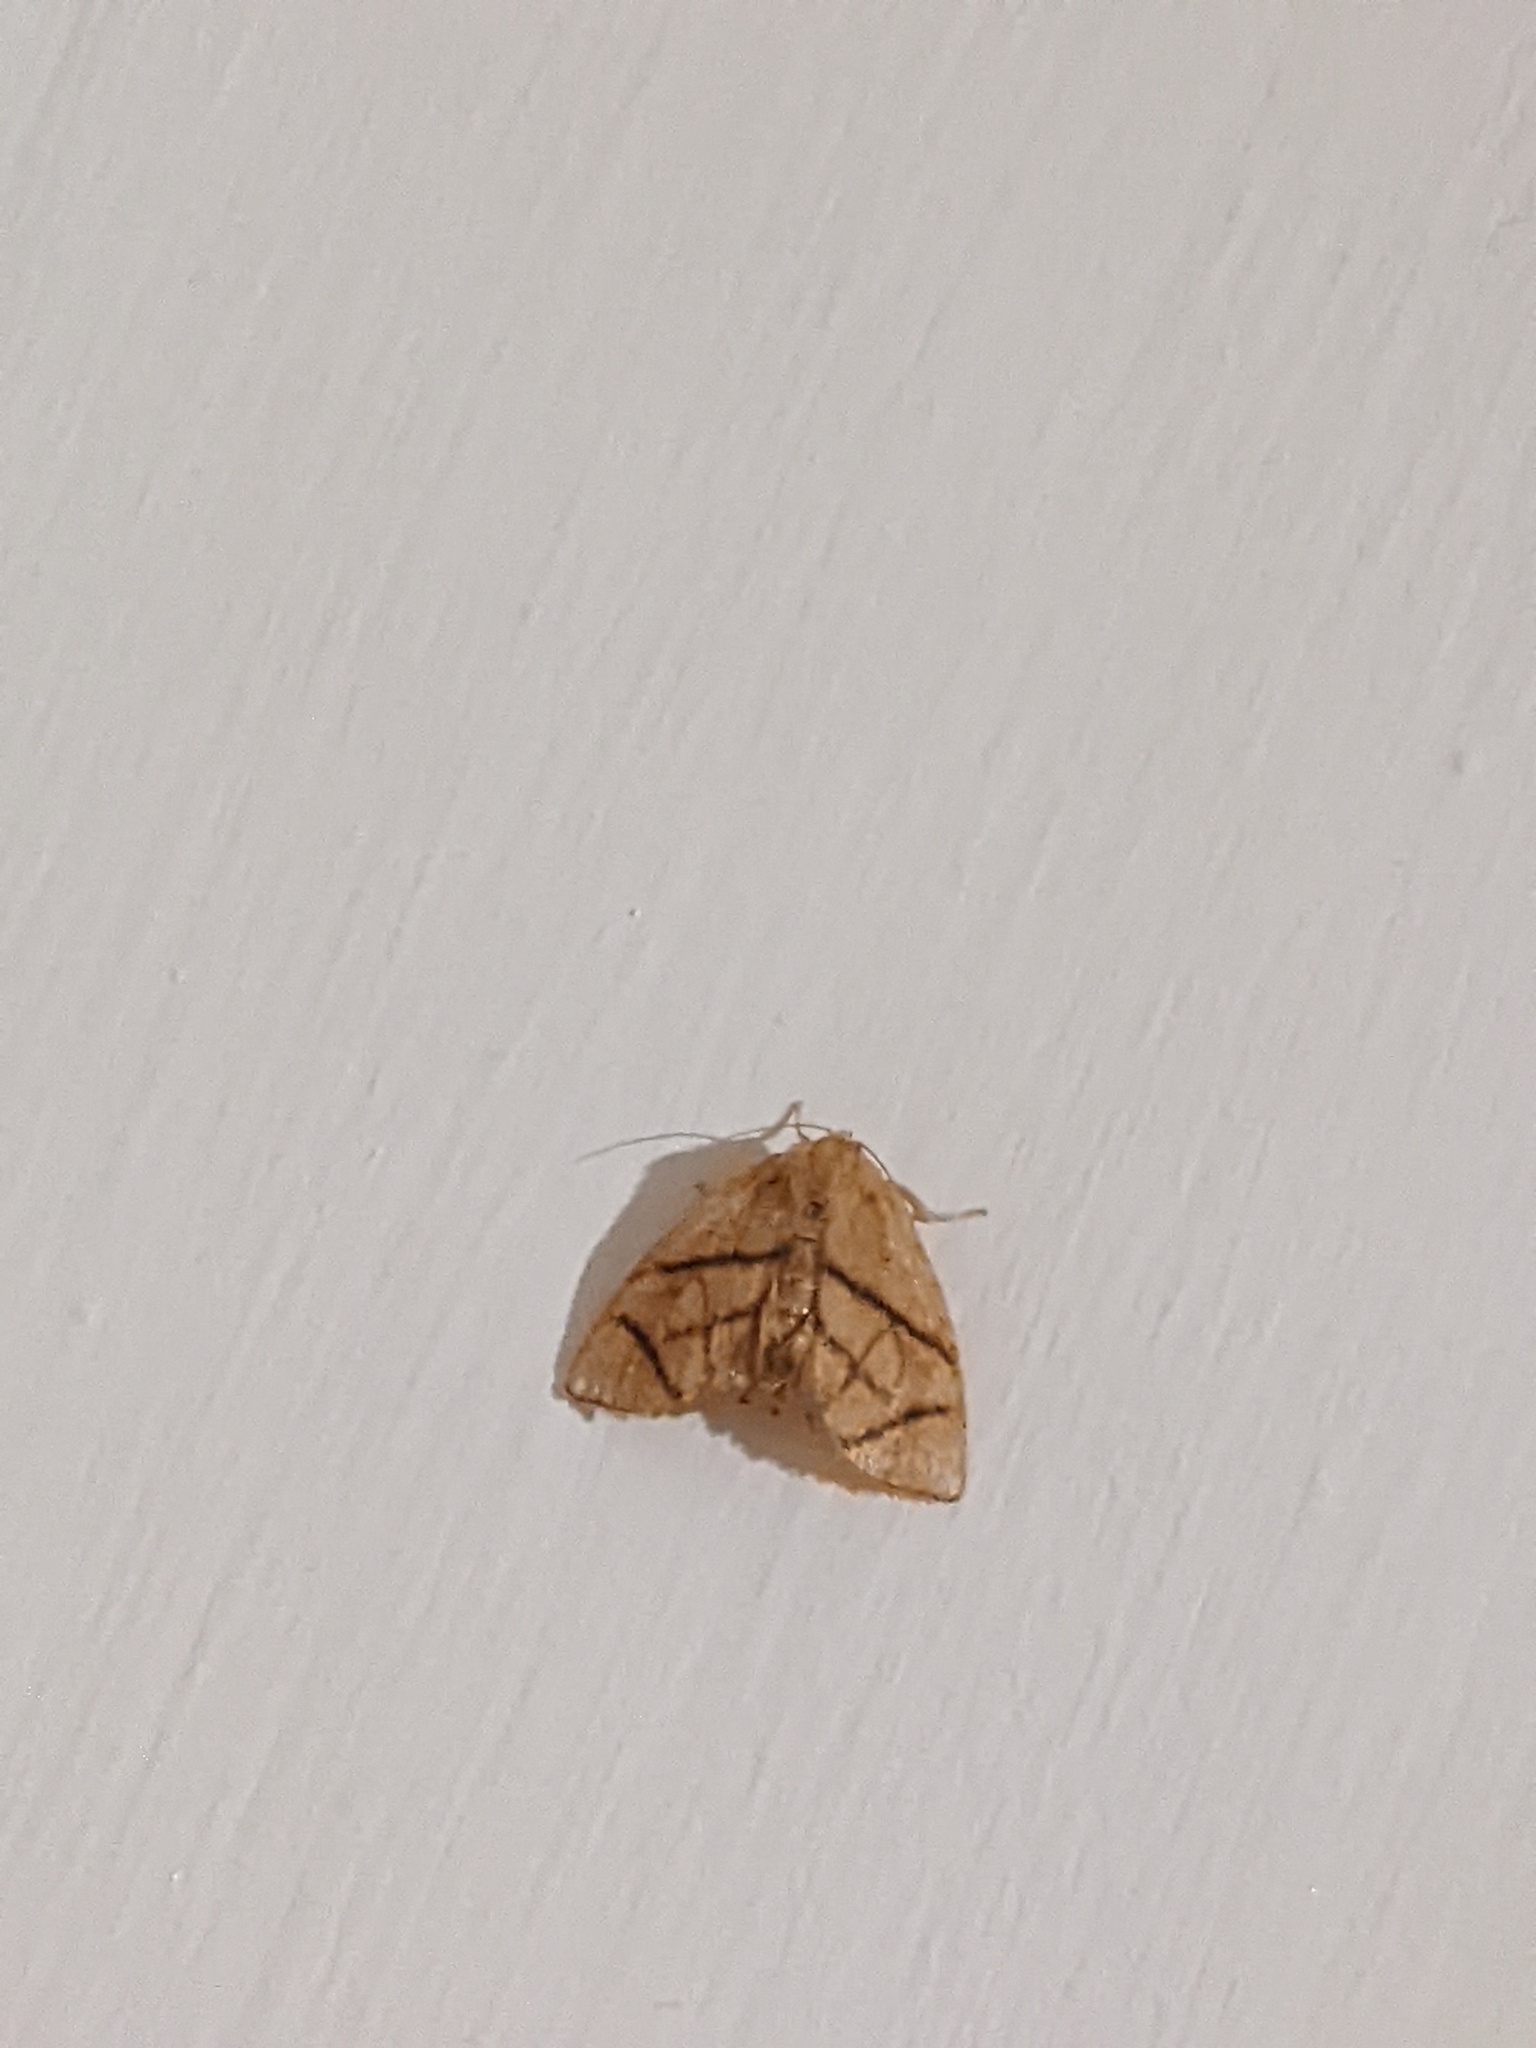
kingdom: Animalia
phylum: Arthropoda
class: Insecta
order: Lepidoptera
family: Limacodidae
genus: Apoda
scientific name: Apoda y-inversa
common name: Yellow-collared slug moth
